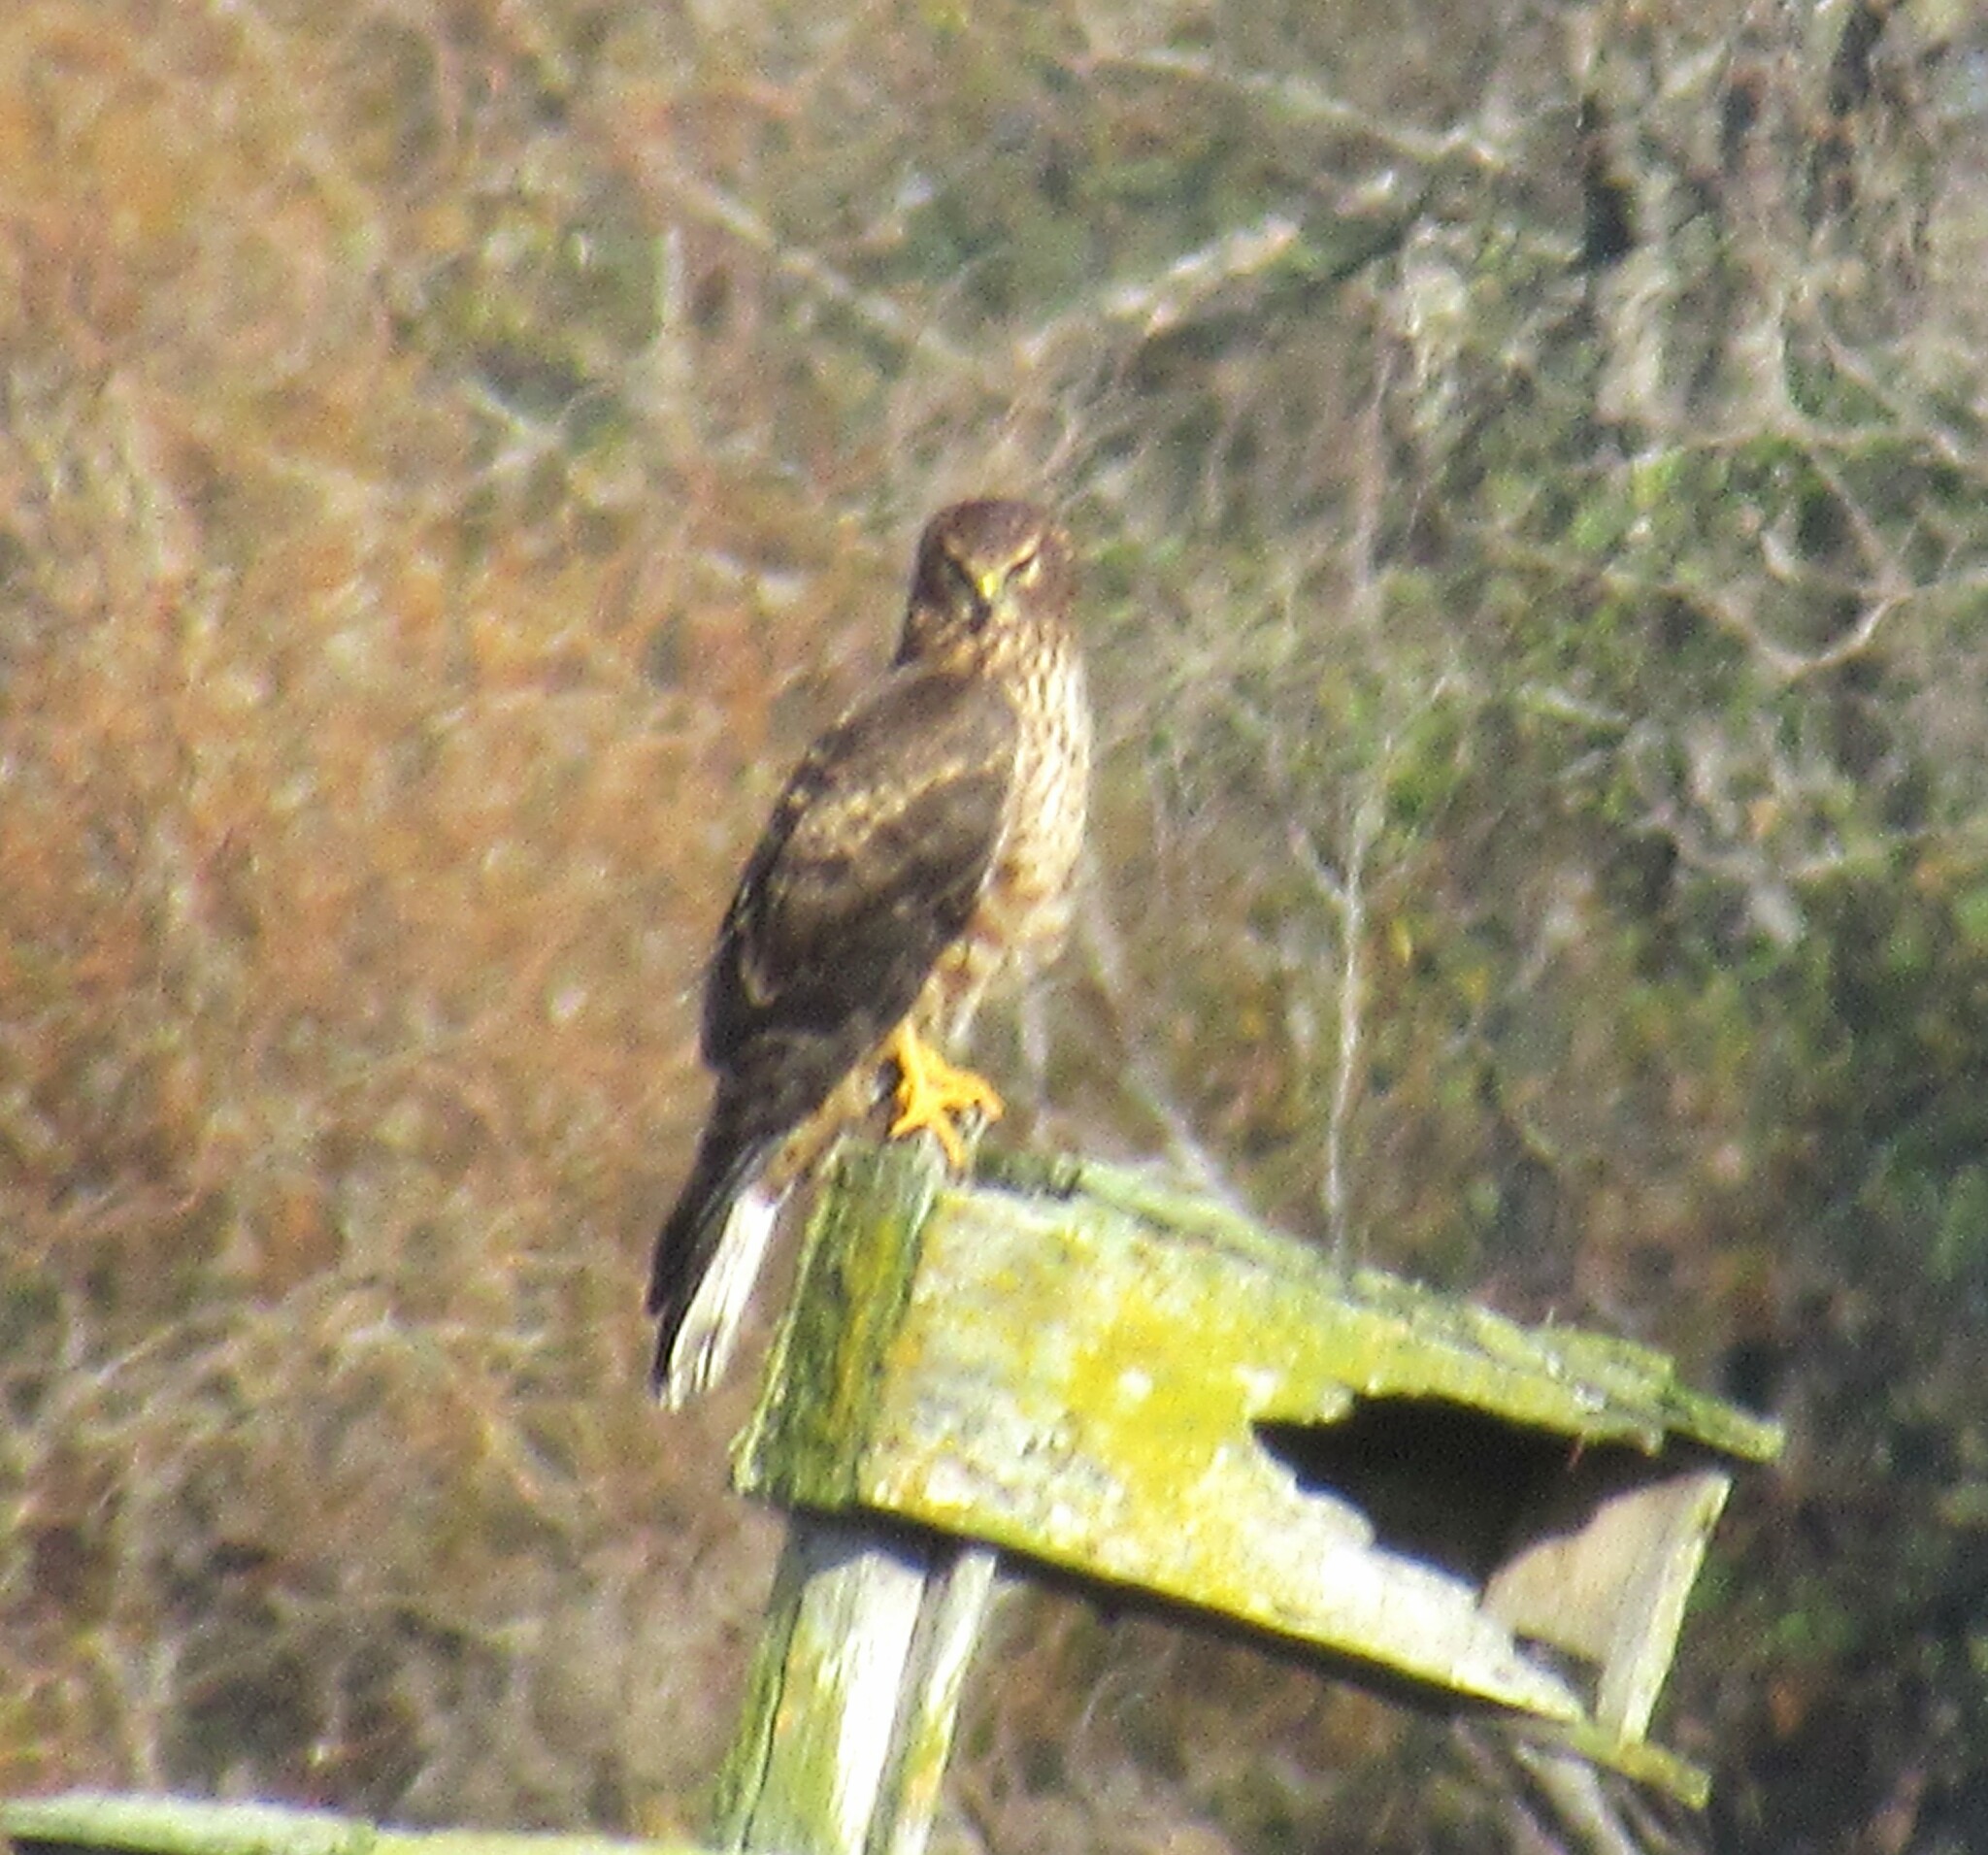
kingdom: Animalia
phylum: Chordata
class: Aves
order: Accipitriformes
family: Accipitridae
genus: Circus
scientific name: Circus cyaneus
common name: Hen harrier
